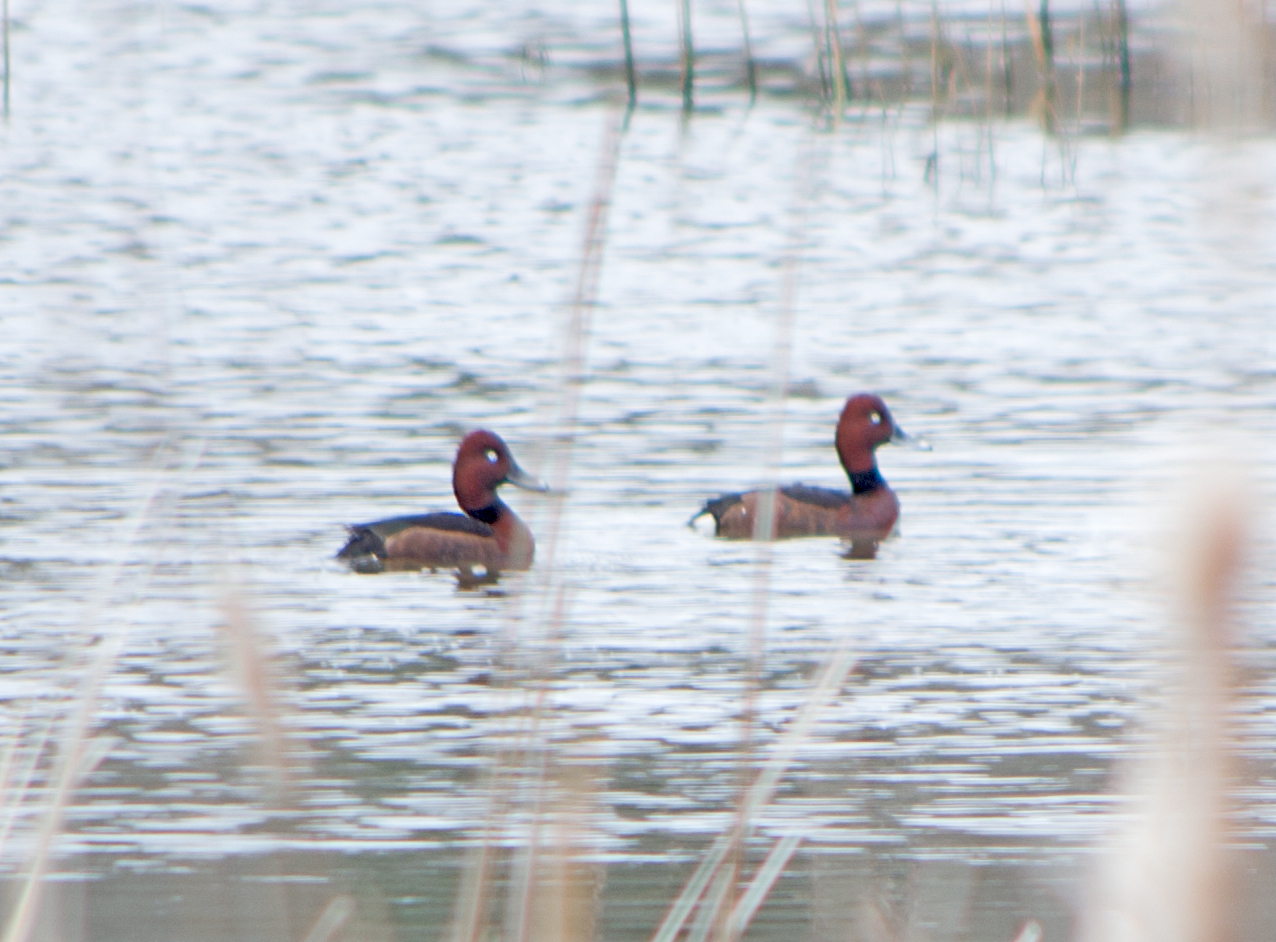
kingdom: Animalia
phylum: Chordata
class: Aves
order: Anseriformes
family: Anatidae
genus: Aythya
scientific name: Aythya nyroca
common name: Ferruginous duck
